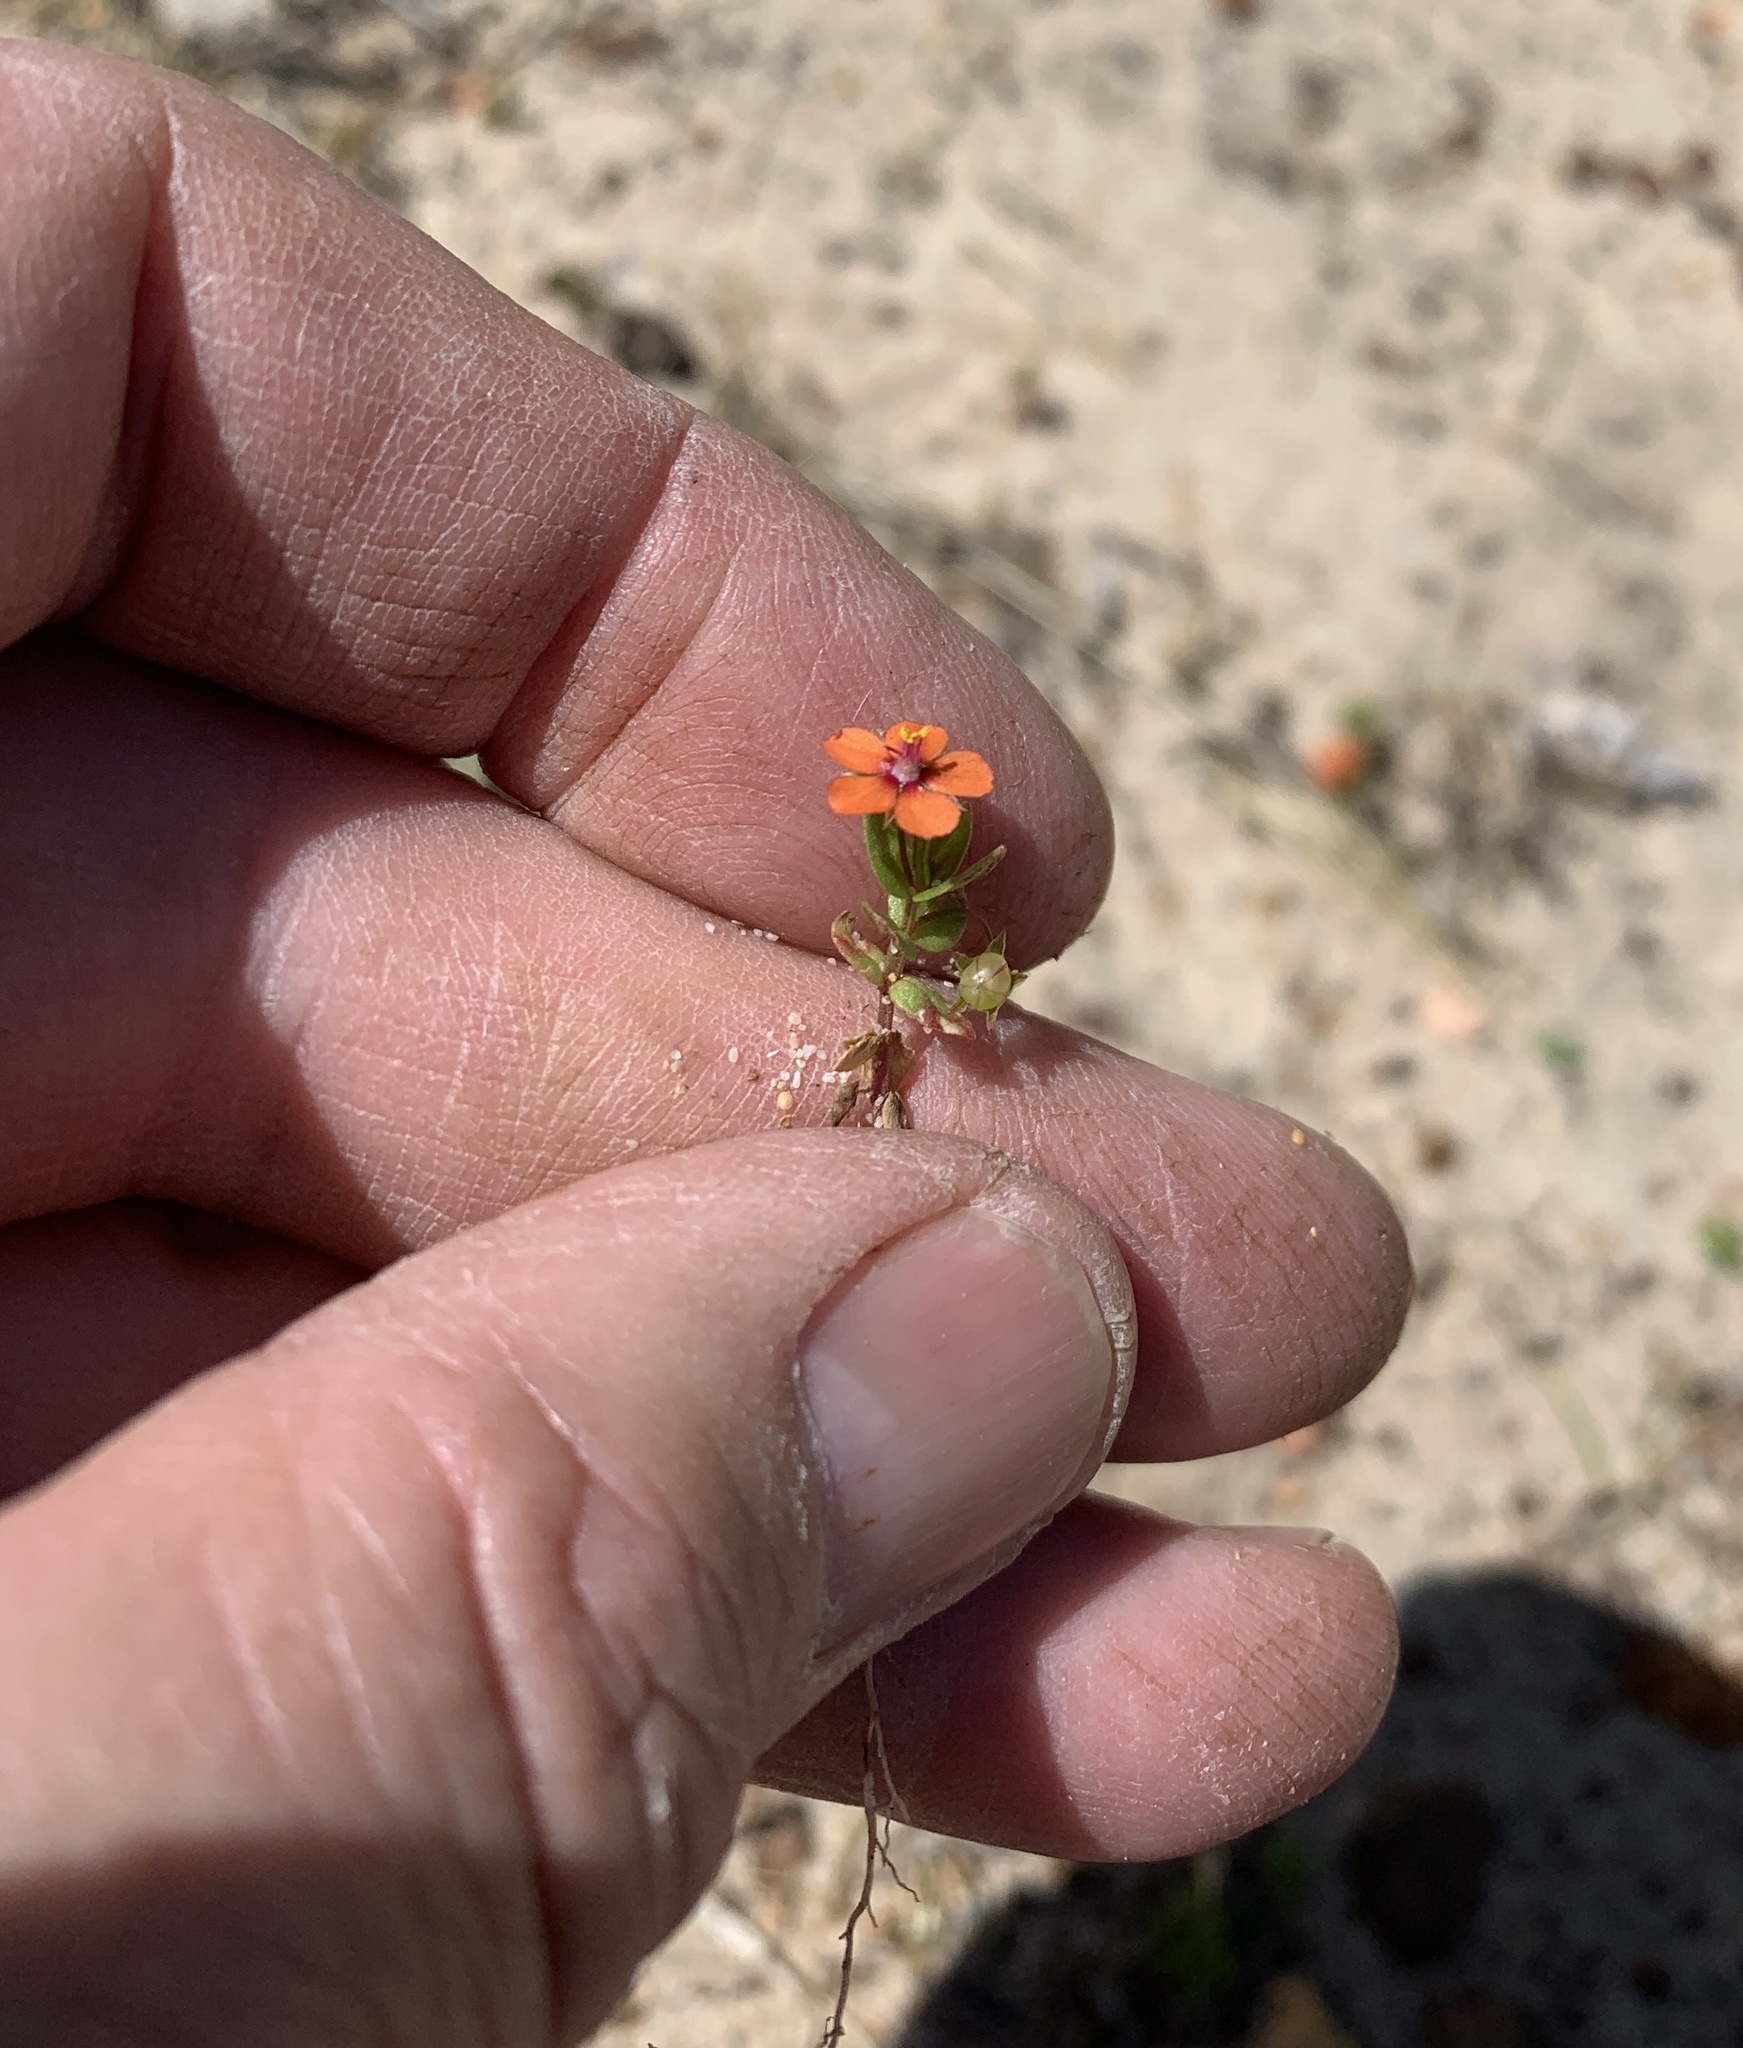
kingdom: Plantae
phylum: Tracheophyta
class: Magnoliopsida
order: Ericales
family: Primulaceae
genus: Lysimachia
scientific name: Lysimachia arvensis
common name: Scarlet pimpernel
